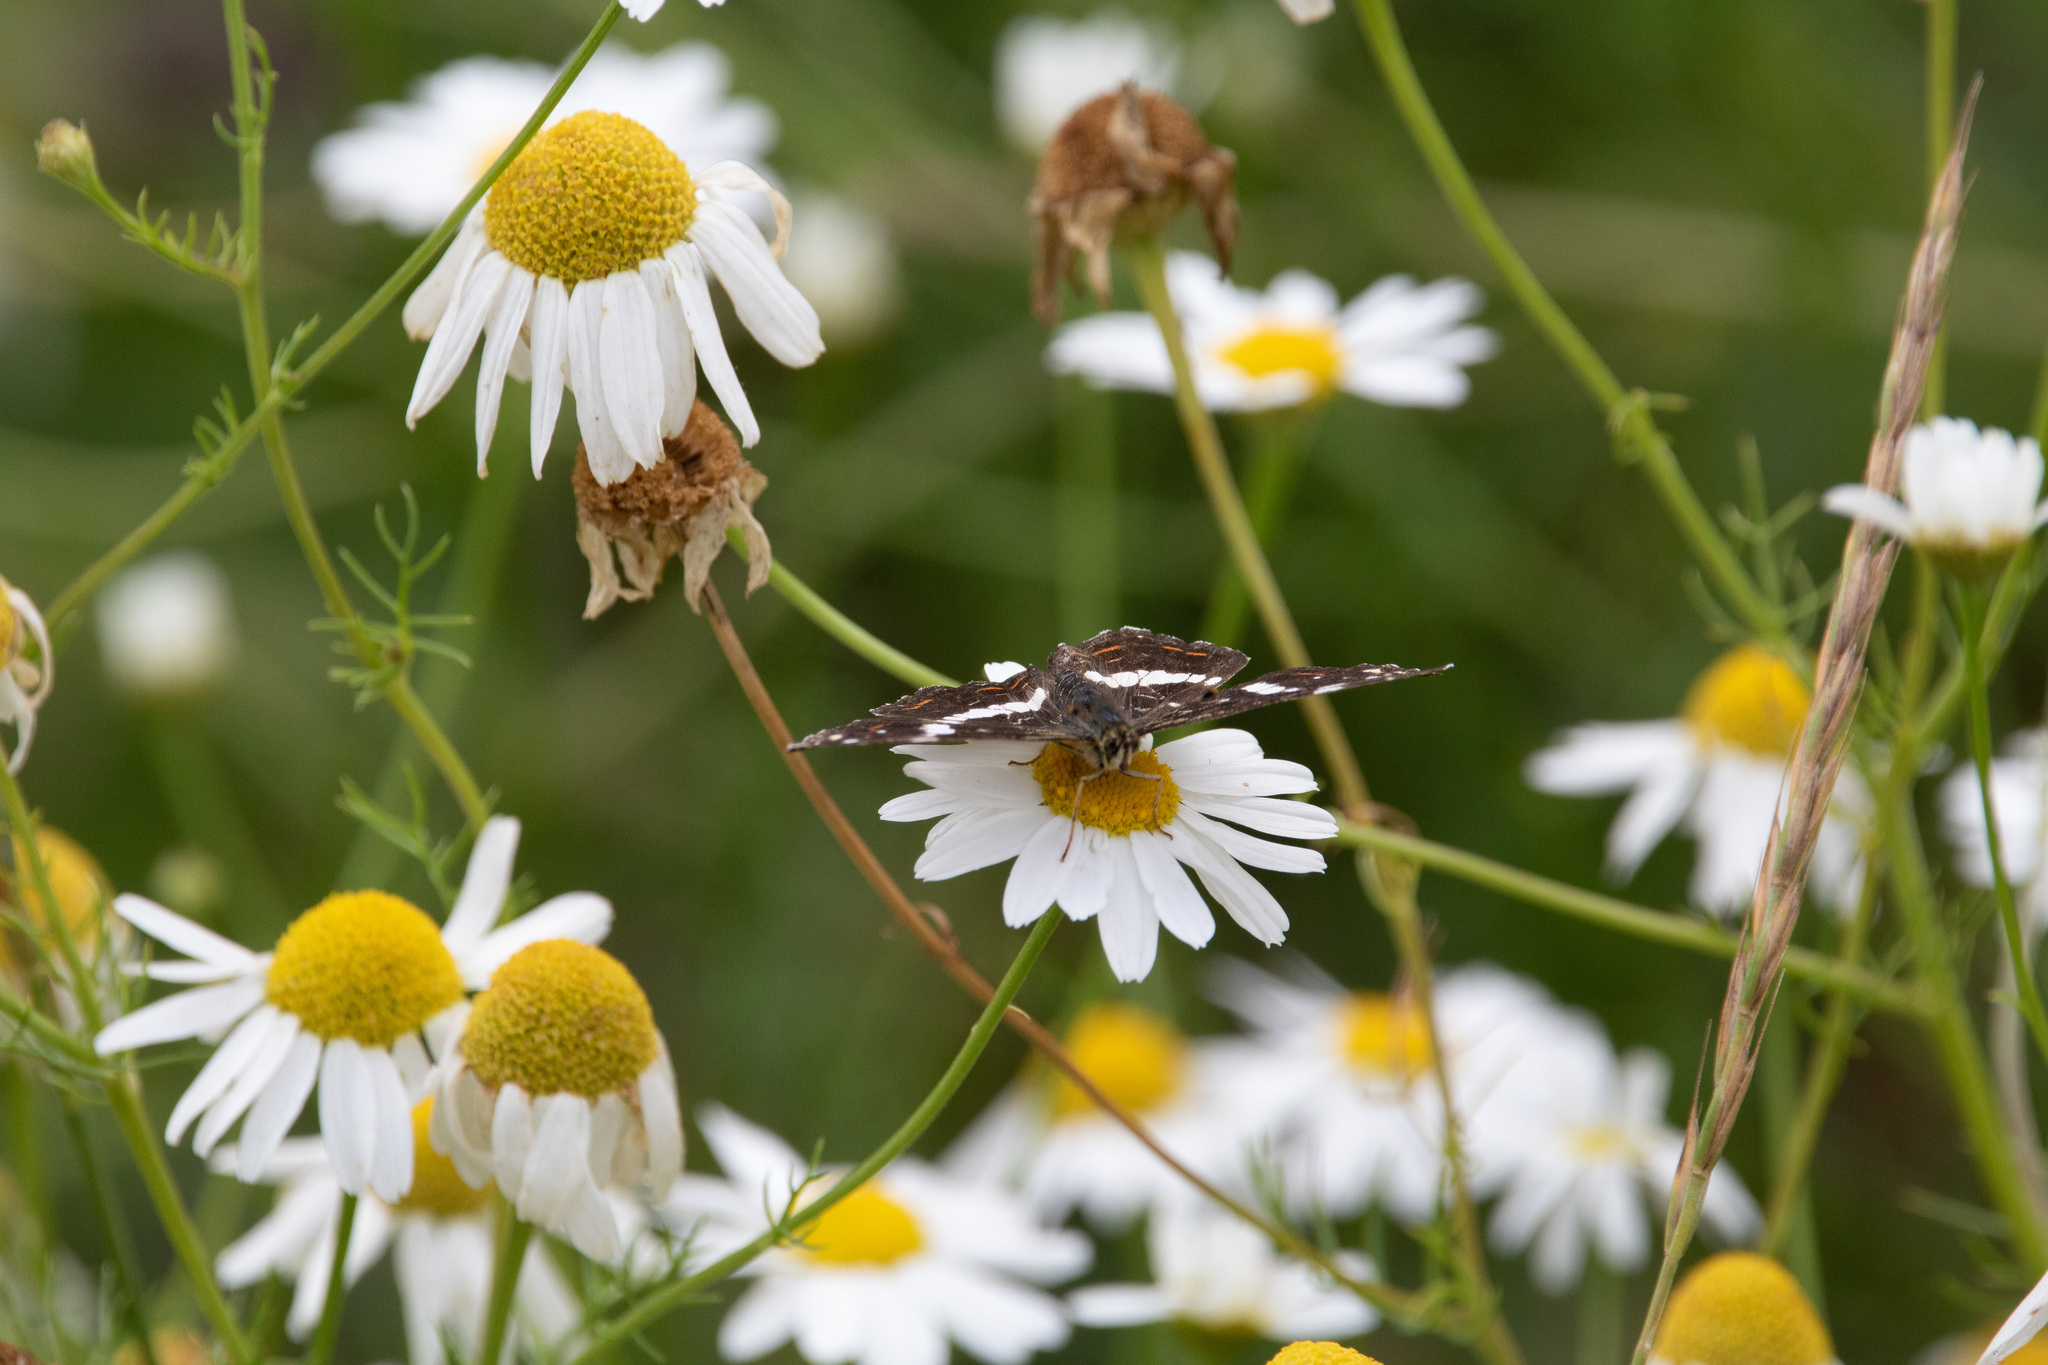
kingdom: Animalia
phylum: Arthropoda
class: Insecta
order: Lepidoptera
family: Nymphalidae
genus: Araschnia
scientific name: Araschnia levana
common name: Map butterfly
